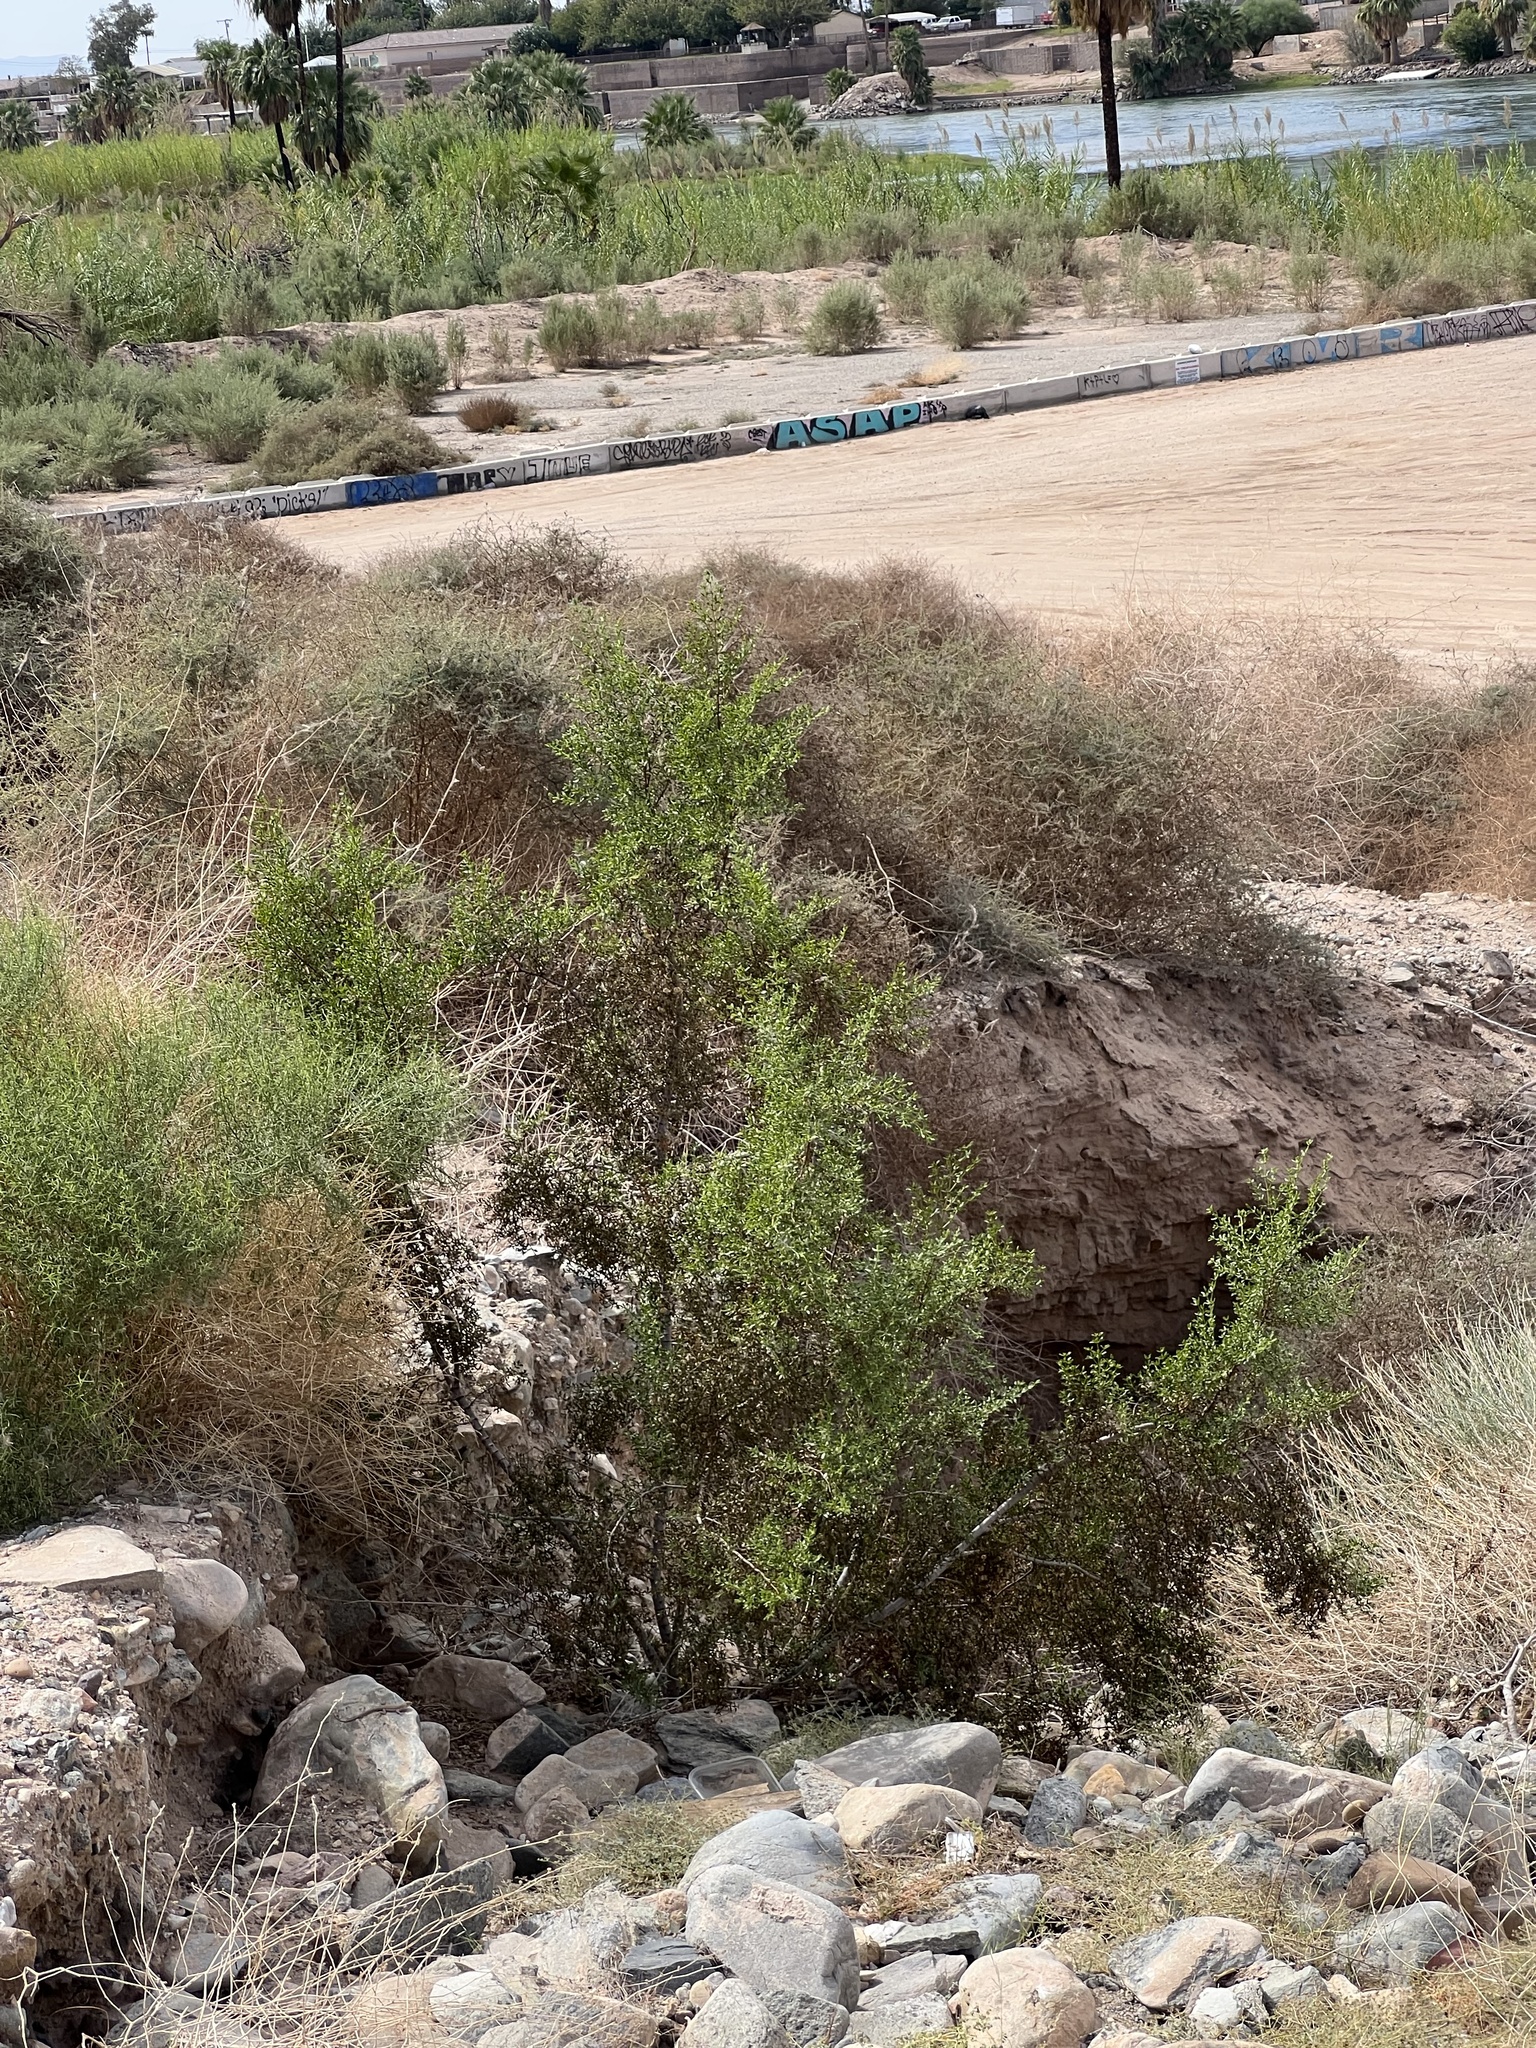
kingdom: Plantae
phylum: Tracheophyta
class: Magnoliopsida
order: Zygophyllales
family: Zygophyllaceae
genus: Larrea
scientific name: Larrea tridentata
